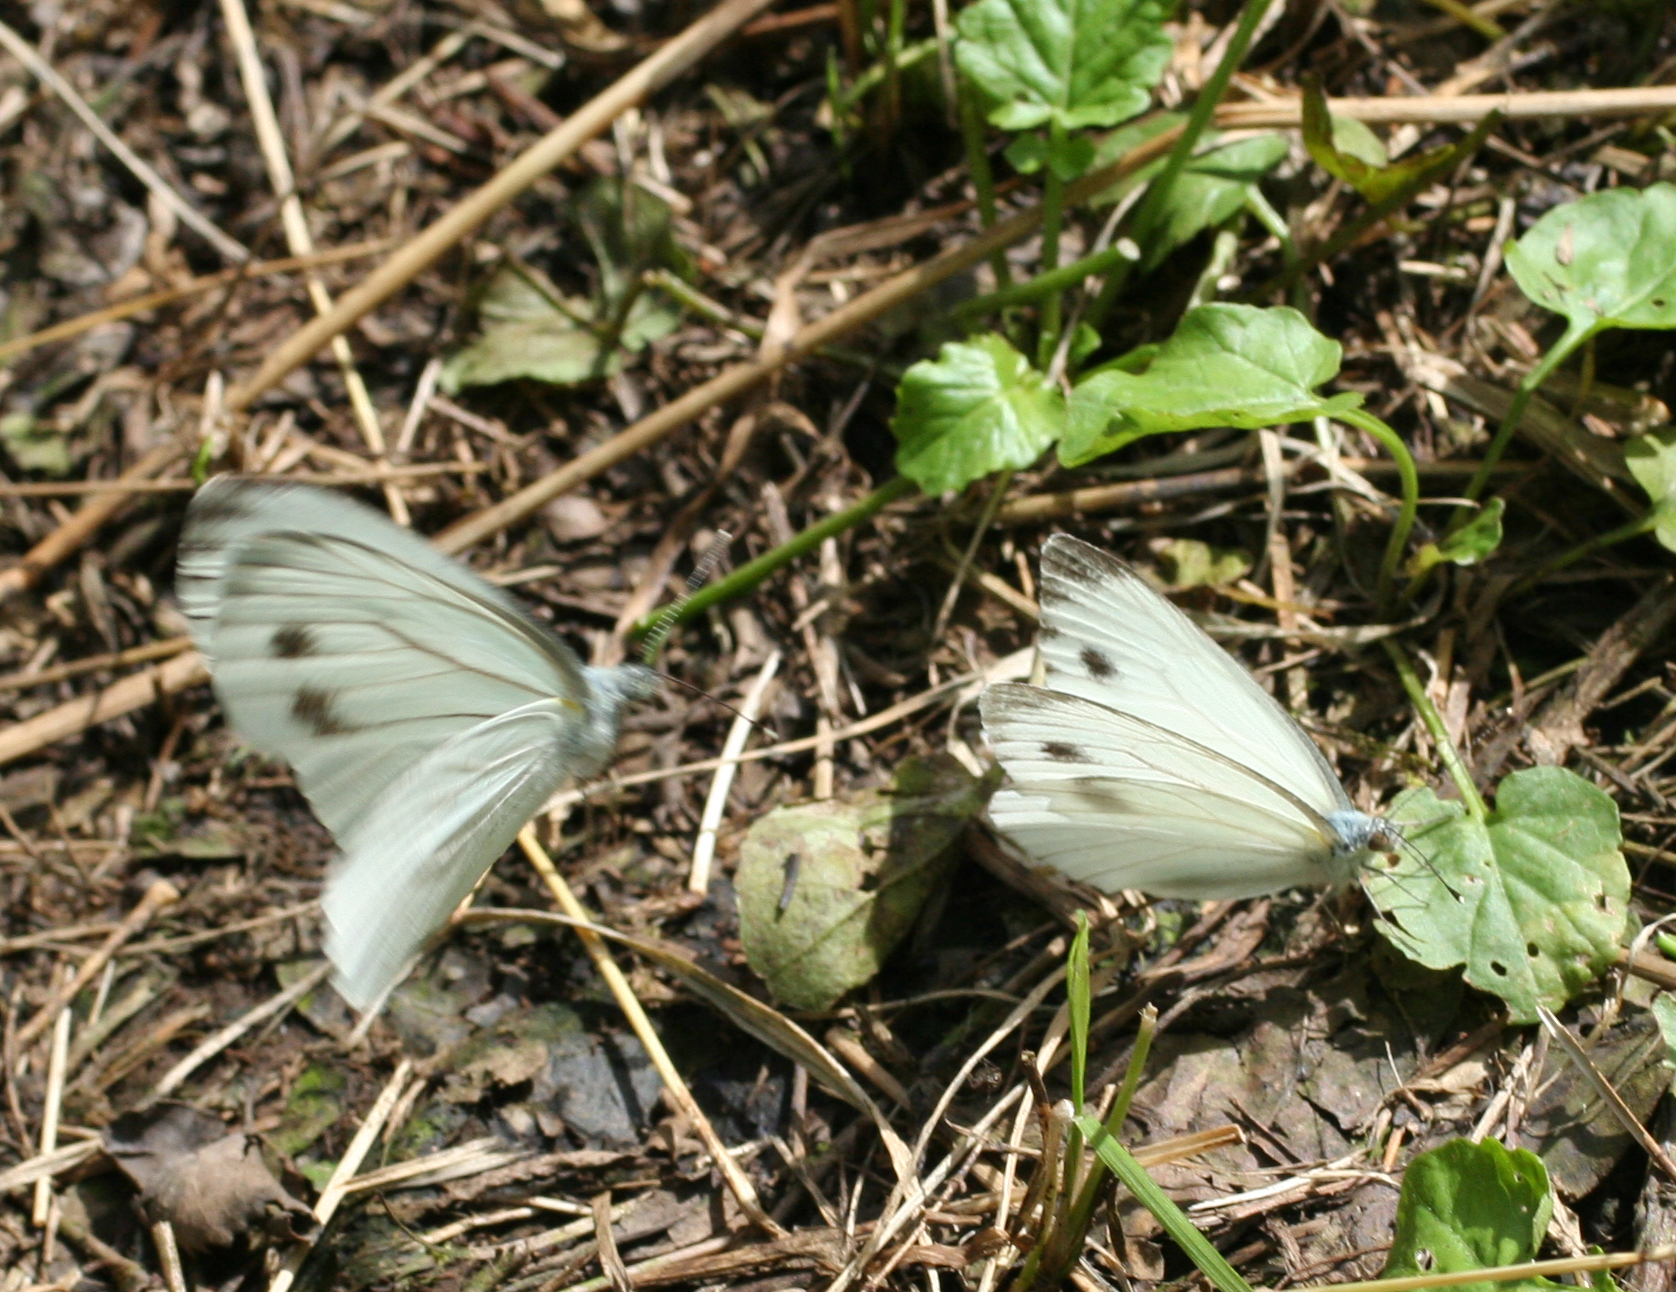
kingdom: Animalia
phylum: Arthropoda
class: Insecta
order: Lepidoptera
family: Pieridae
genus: Pieris
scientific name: Pieris dulcinea
